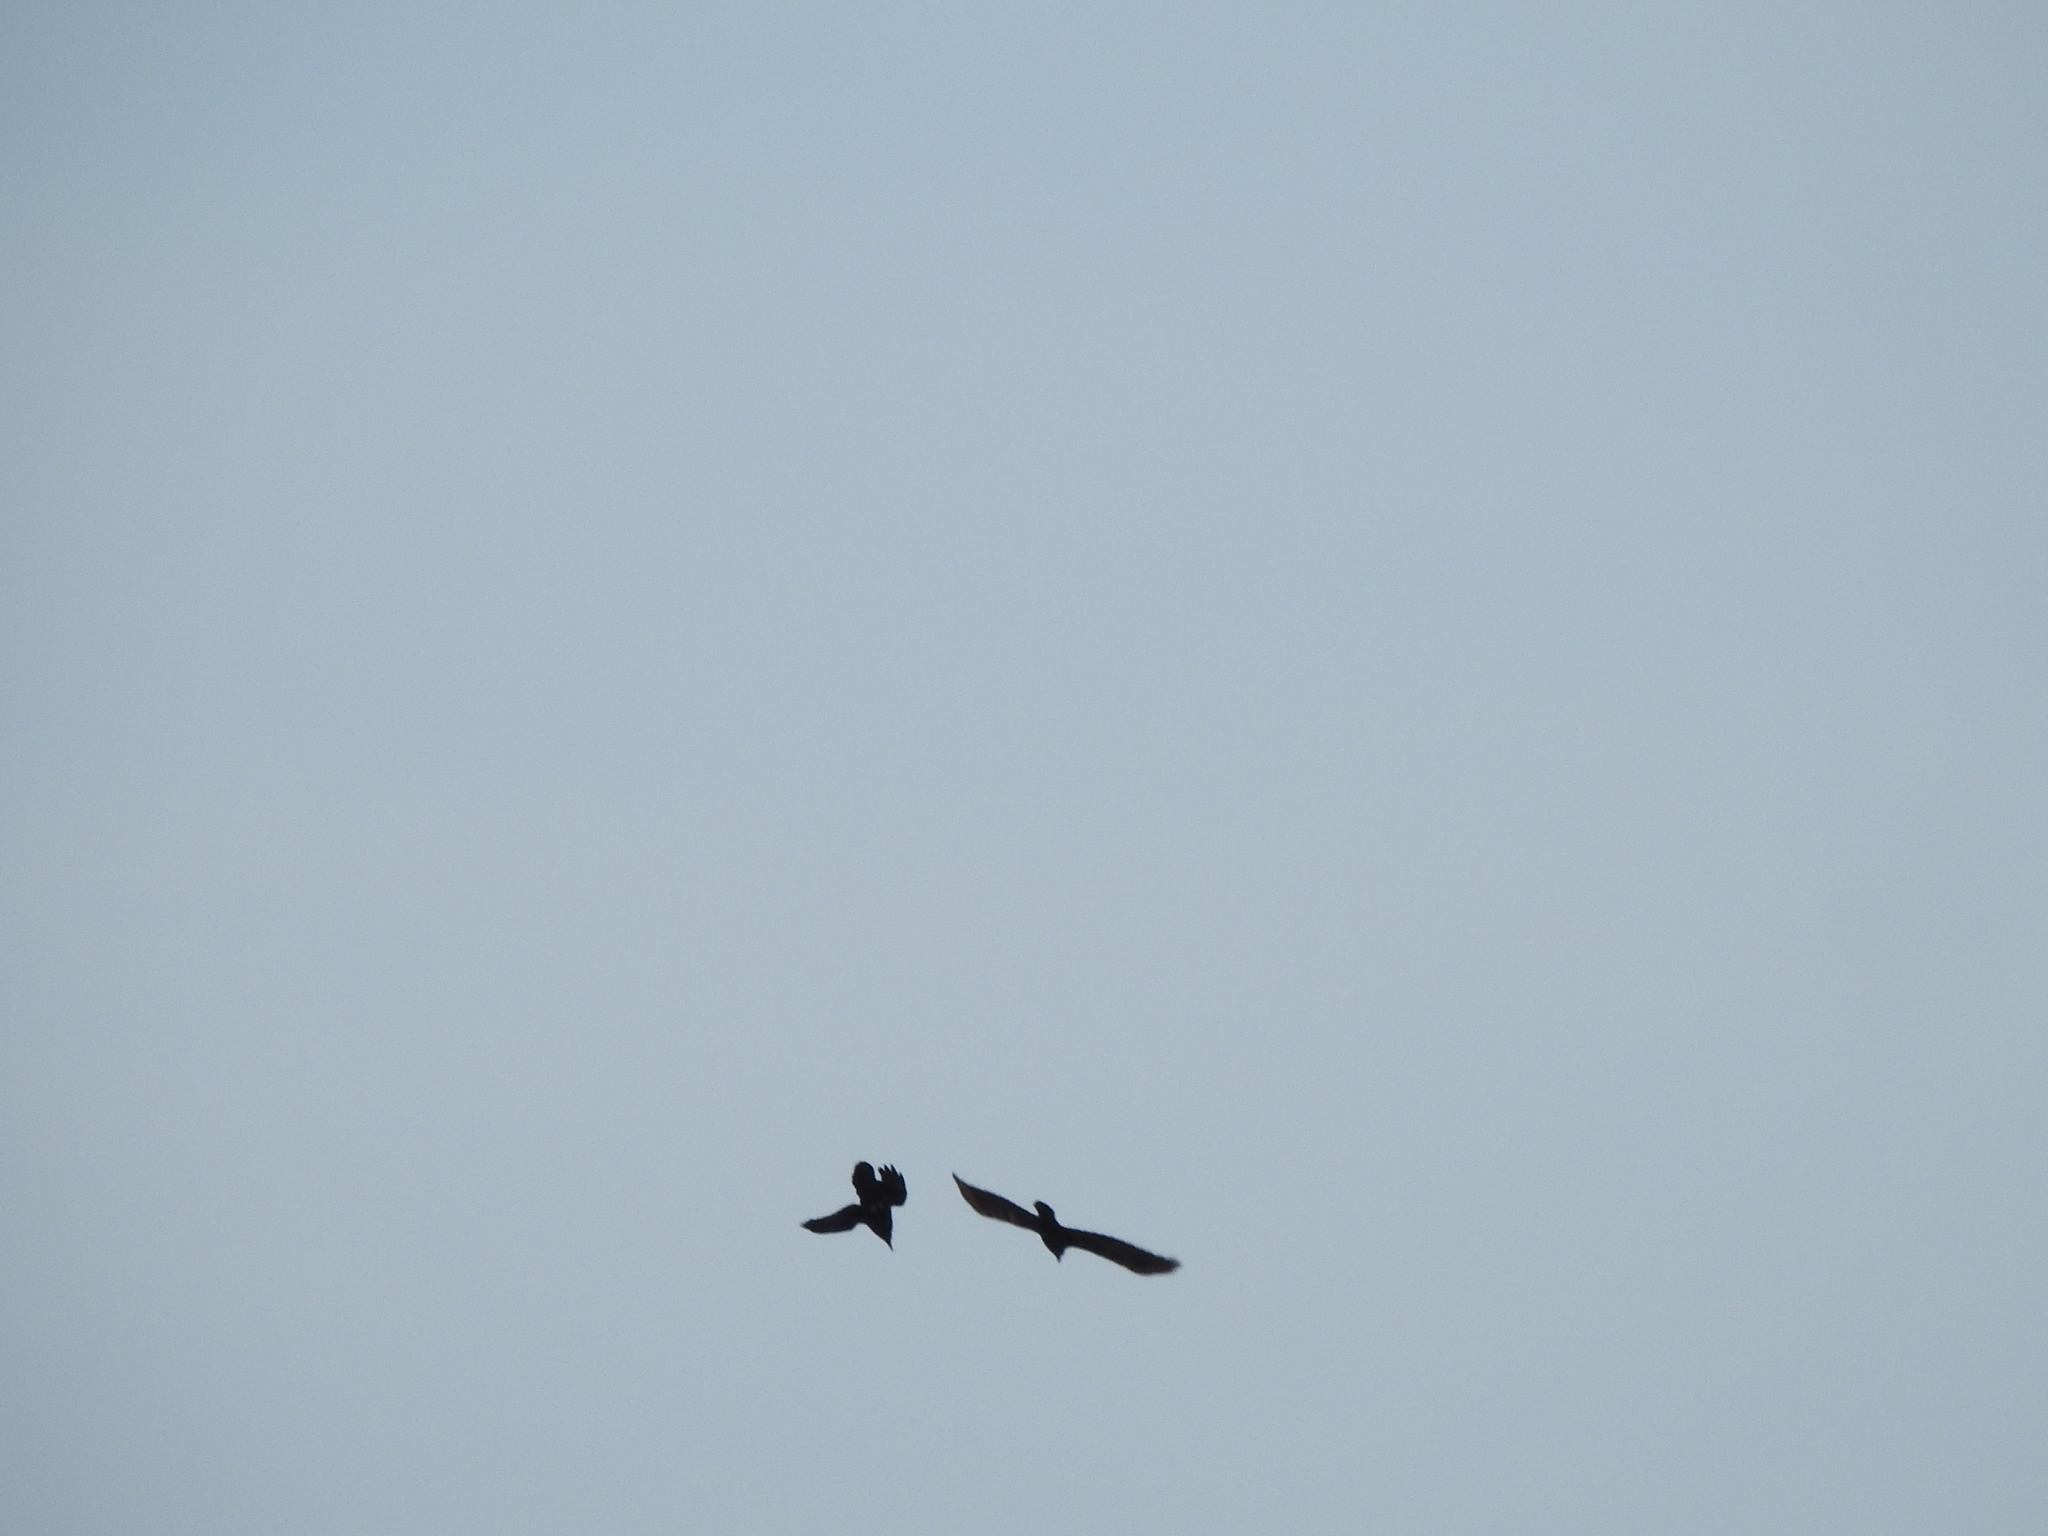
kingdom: Animalia
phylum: Chordata
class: Aves
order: Passeriformes
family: Corvidae
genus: Corvus
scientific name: Corvus corax
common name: Common raven
